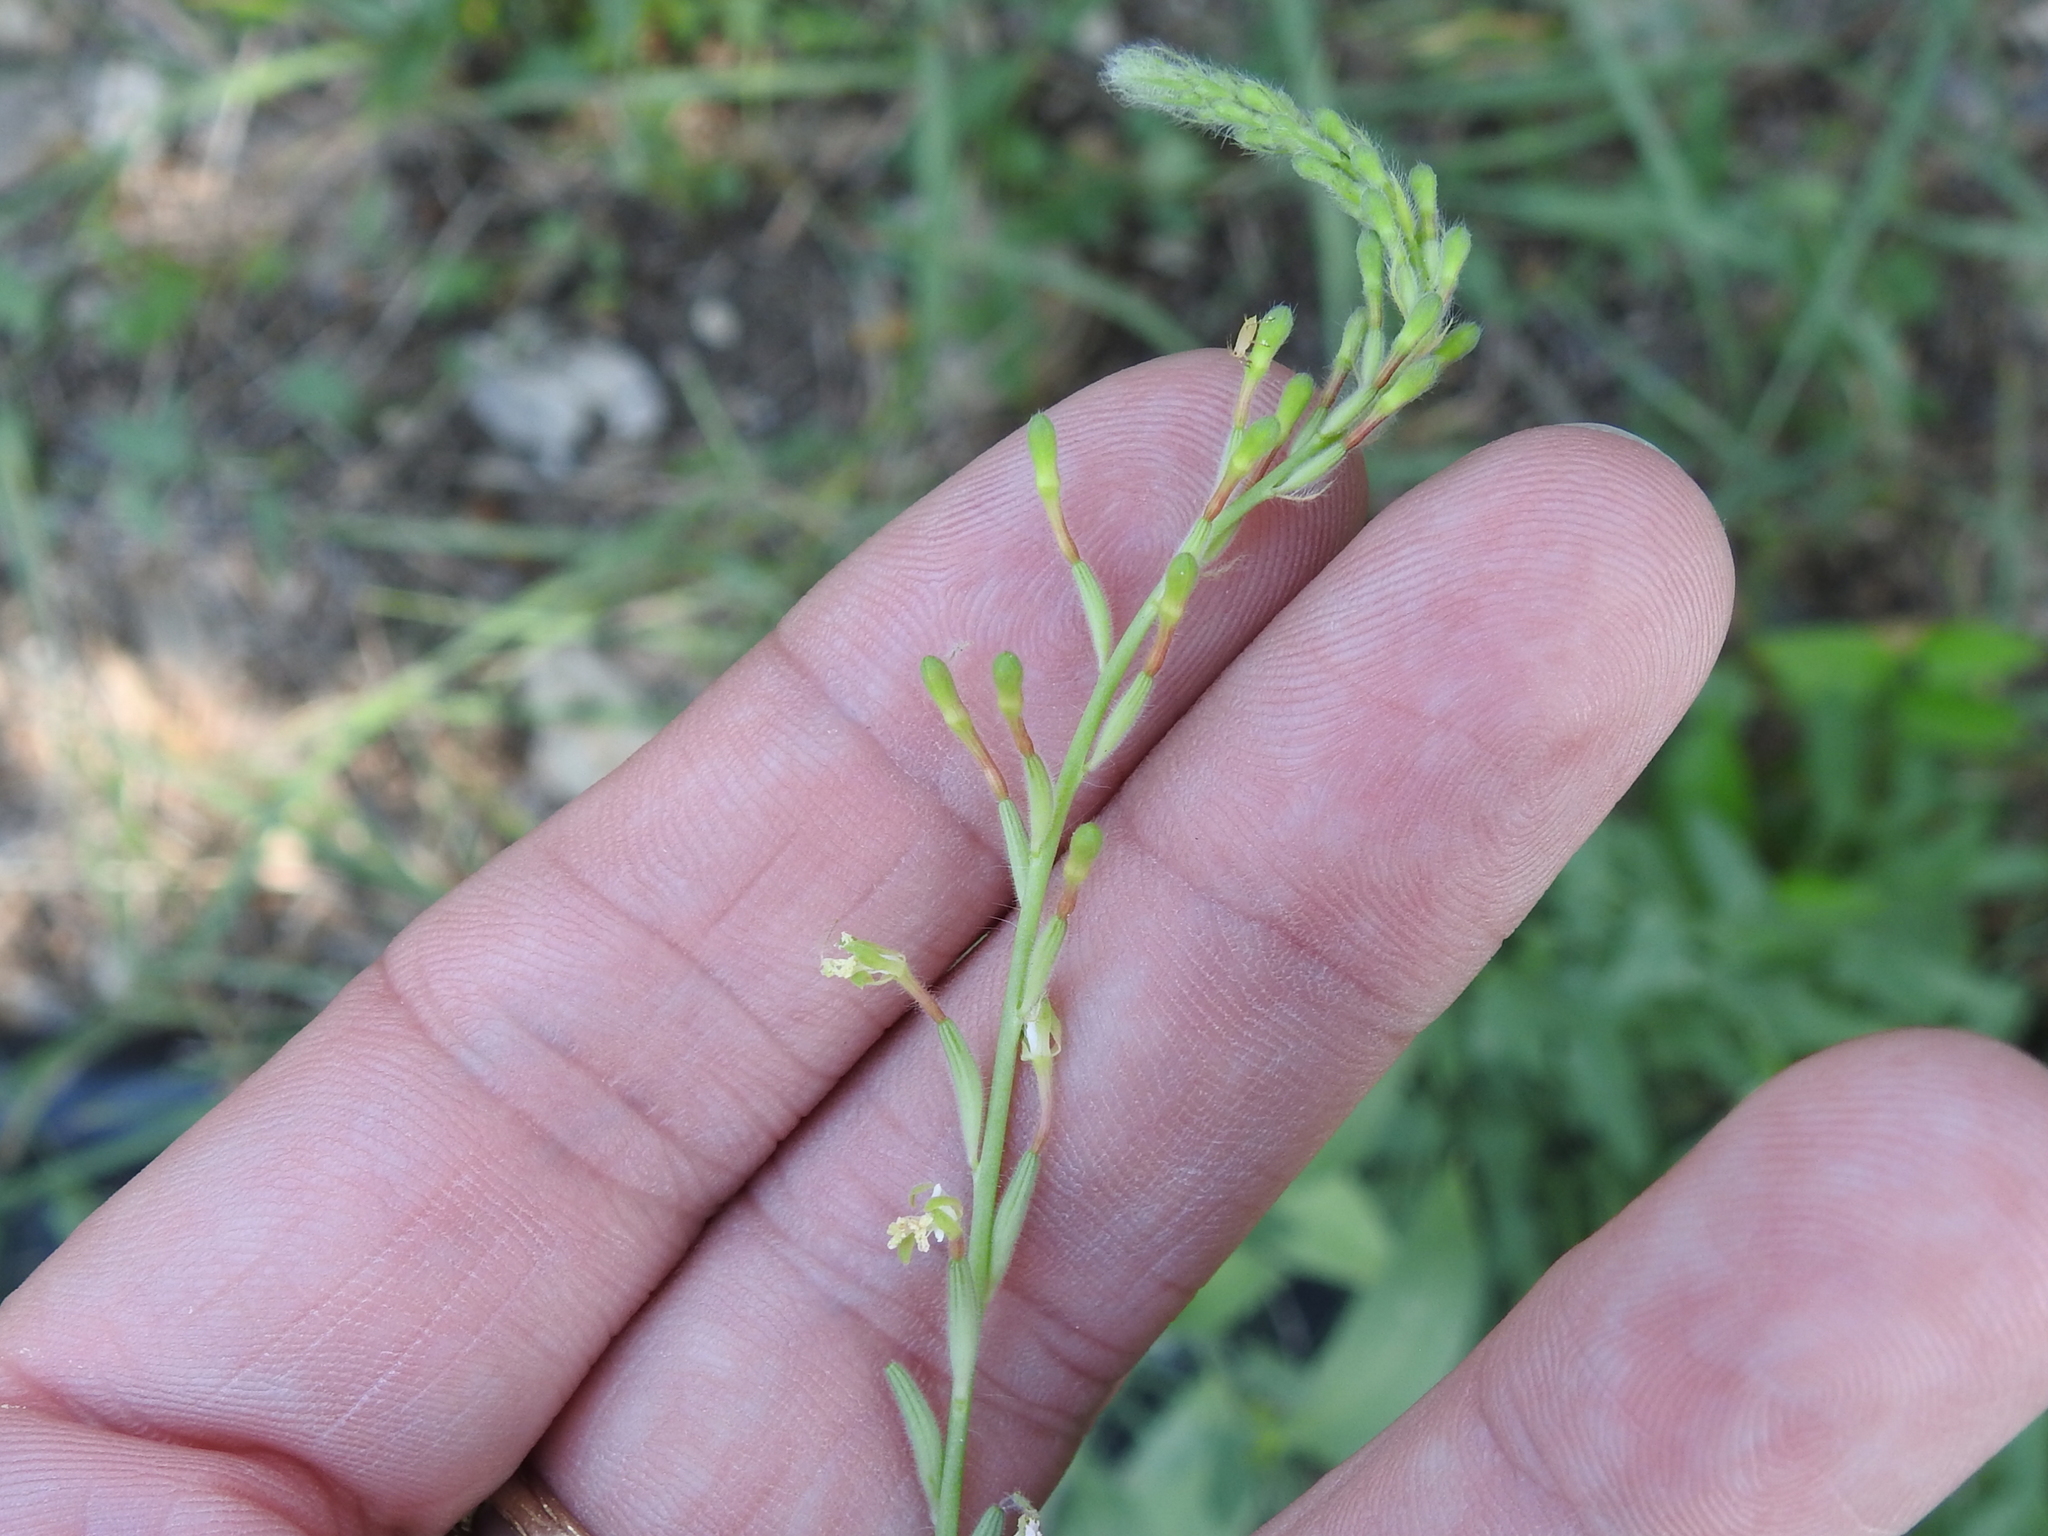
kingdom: Plantae
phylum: Tracheophyta
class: Magnoliopsida
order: Myrtales
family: Onagraceae
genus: Oenothera
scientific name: Oenothera curtiflora
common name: Velvetweed
